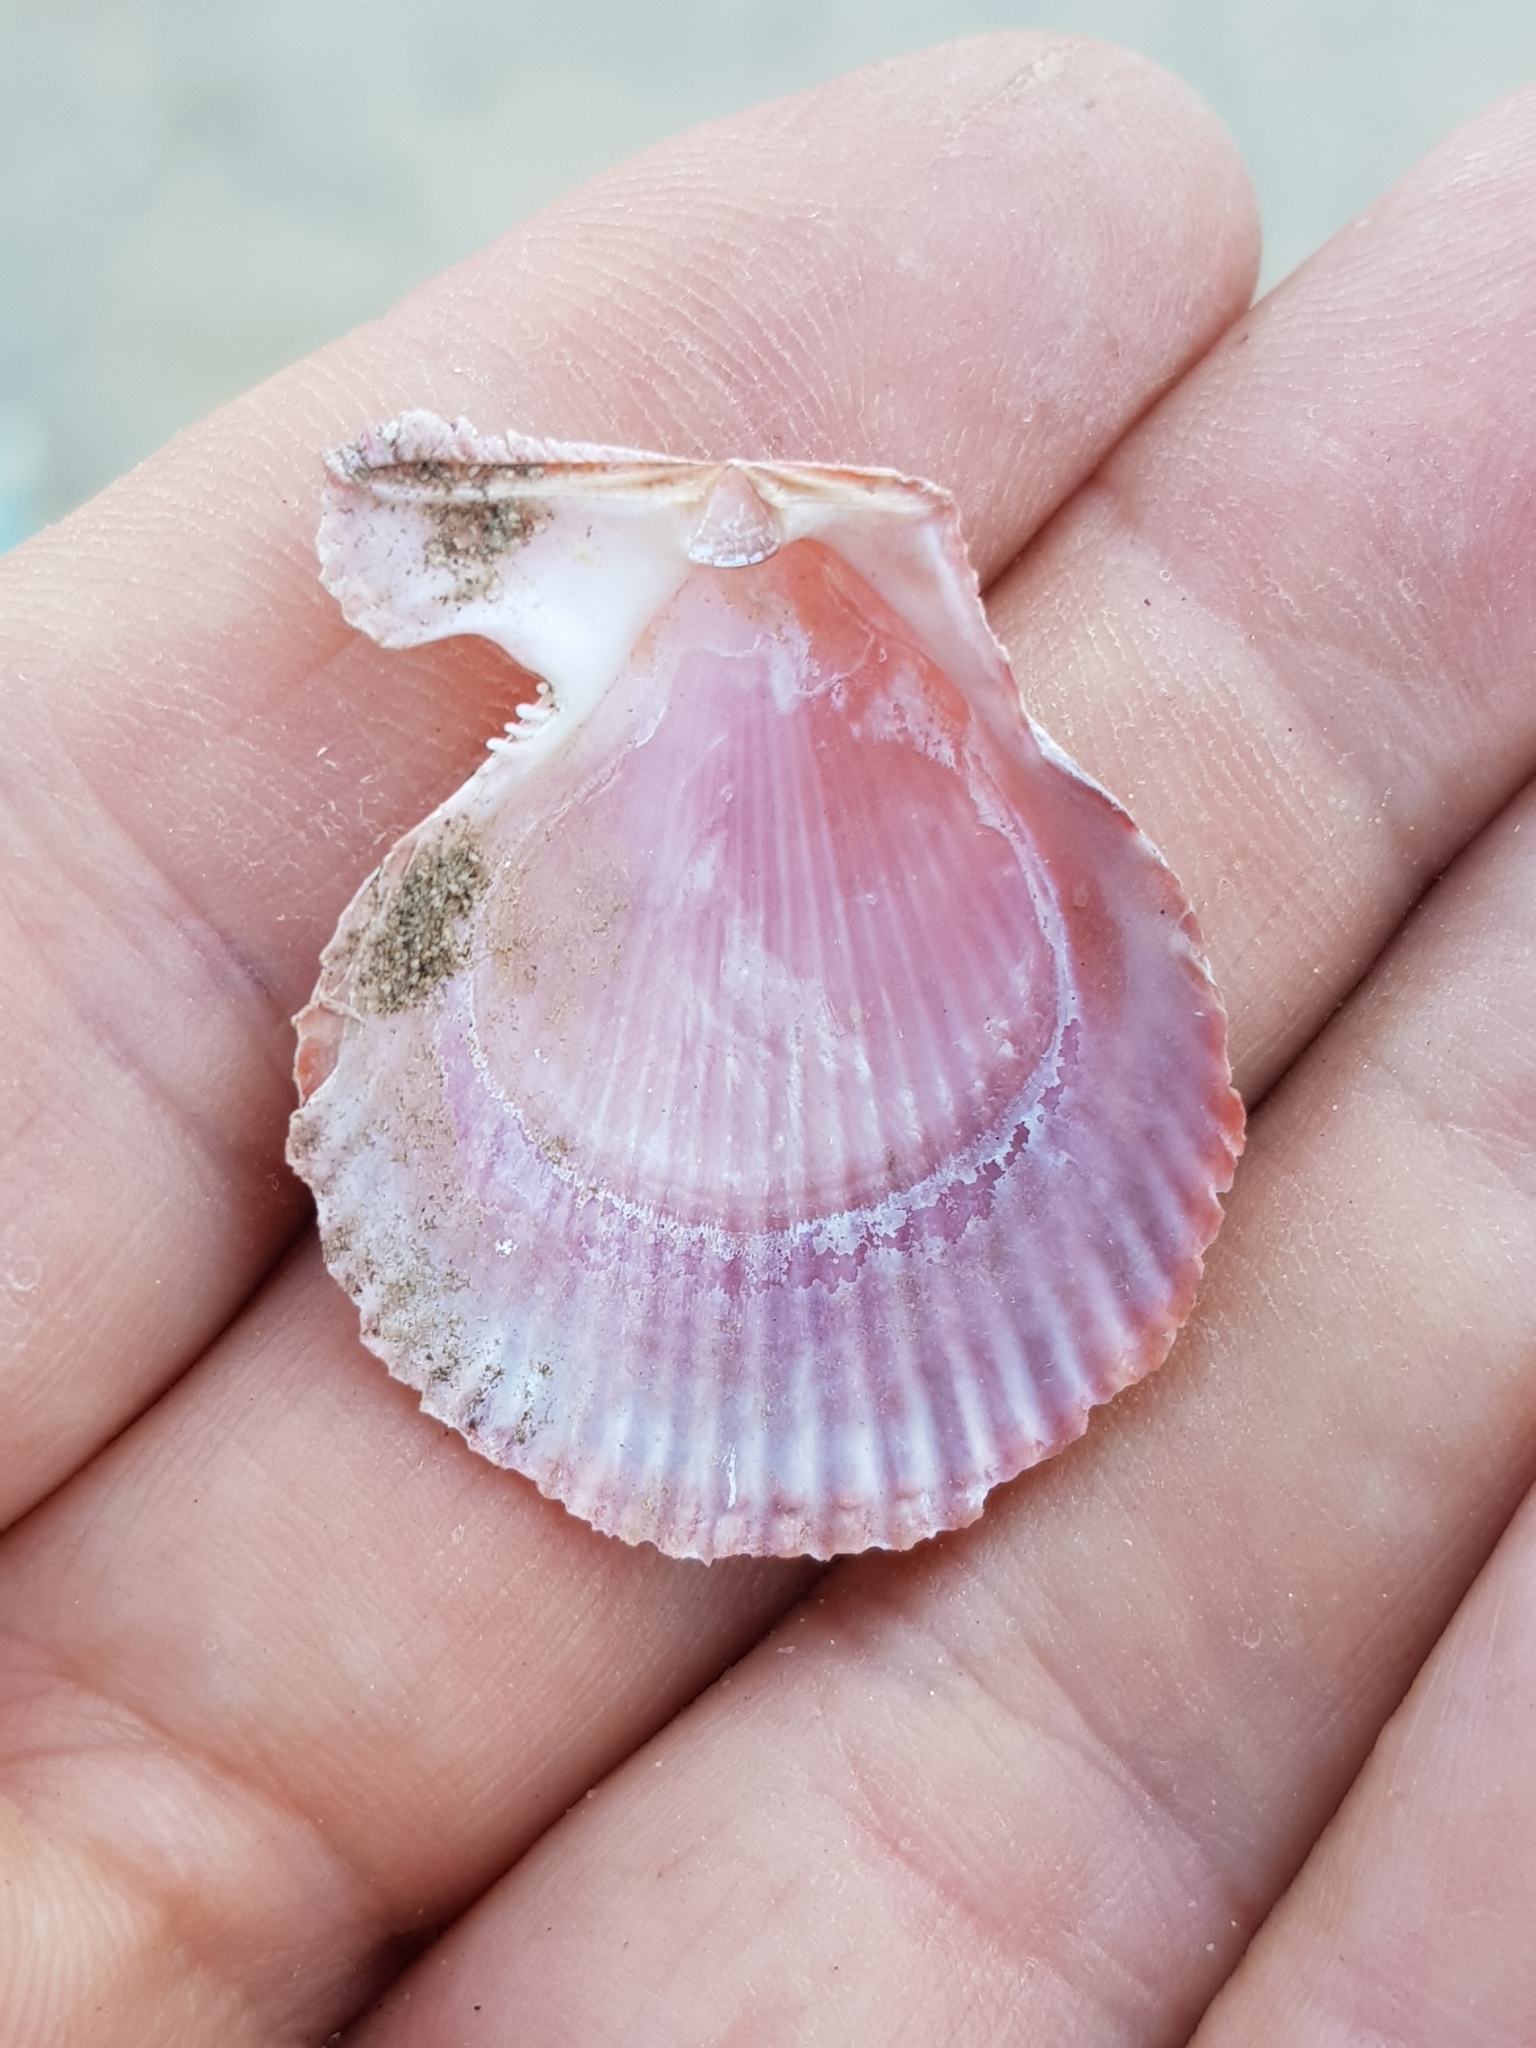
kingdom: Animalia
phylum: Mollusca
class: Bivalvia
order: Pectinida
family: Pectinidae
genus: Mimachlamys
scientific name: Mimachlamys varia
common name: Variegated scallop
